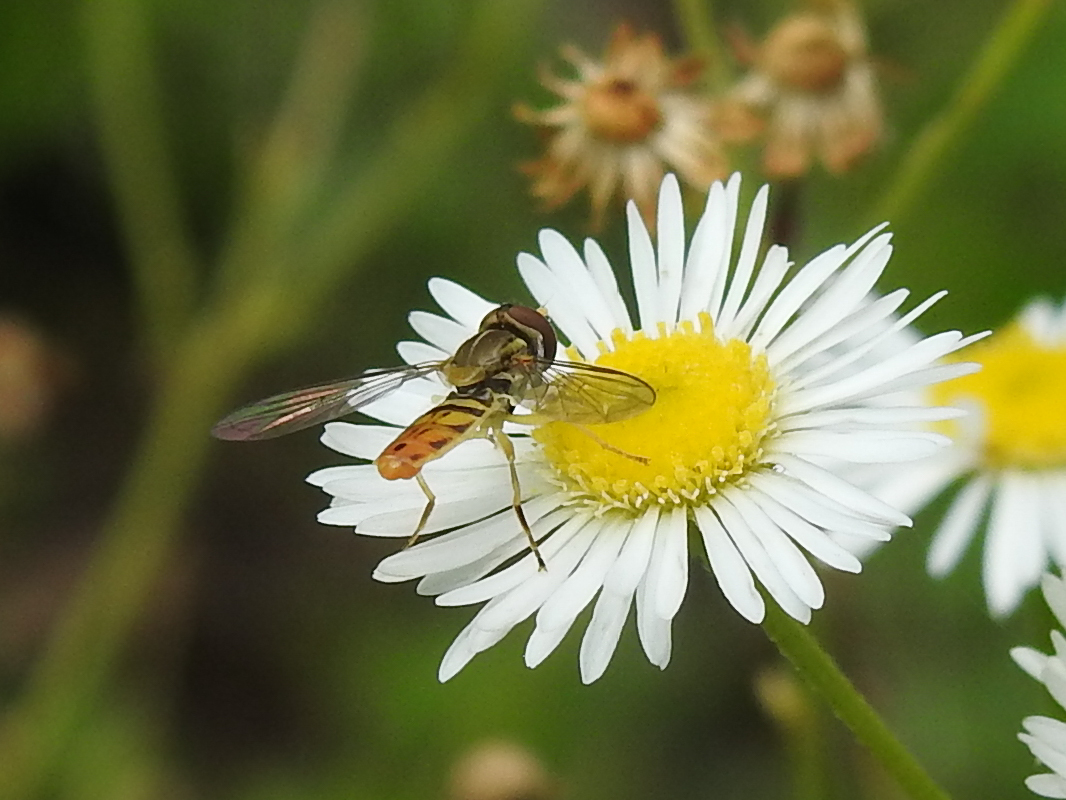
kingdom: Animalia
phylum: Arthropoda
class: Insecta
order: Diptera
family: Syrphidae
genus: Toxomerus
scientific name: Toxomerus marginatus
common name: Syrphid fly
